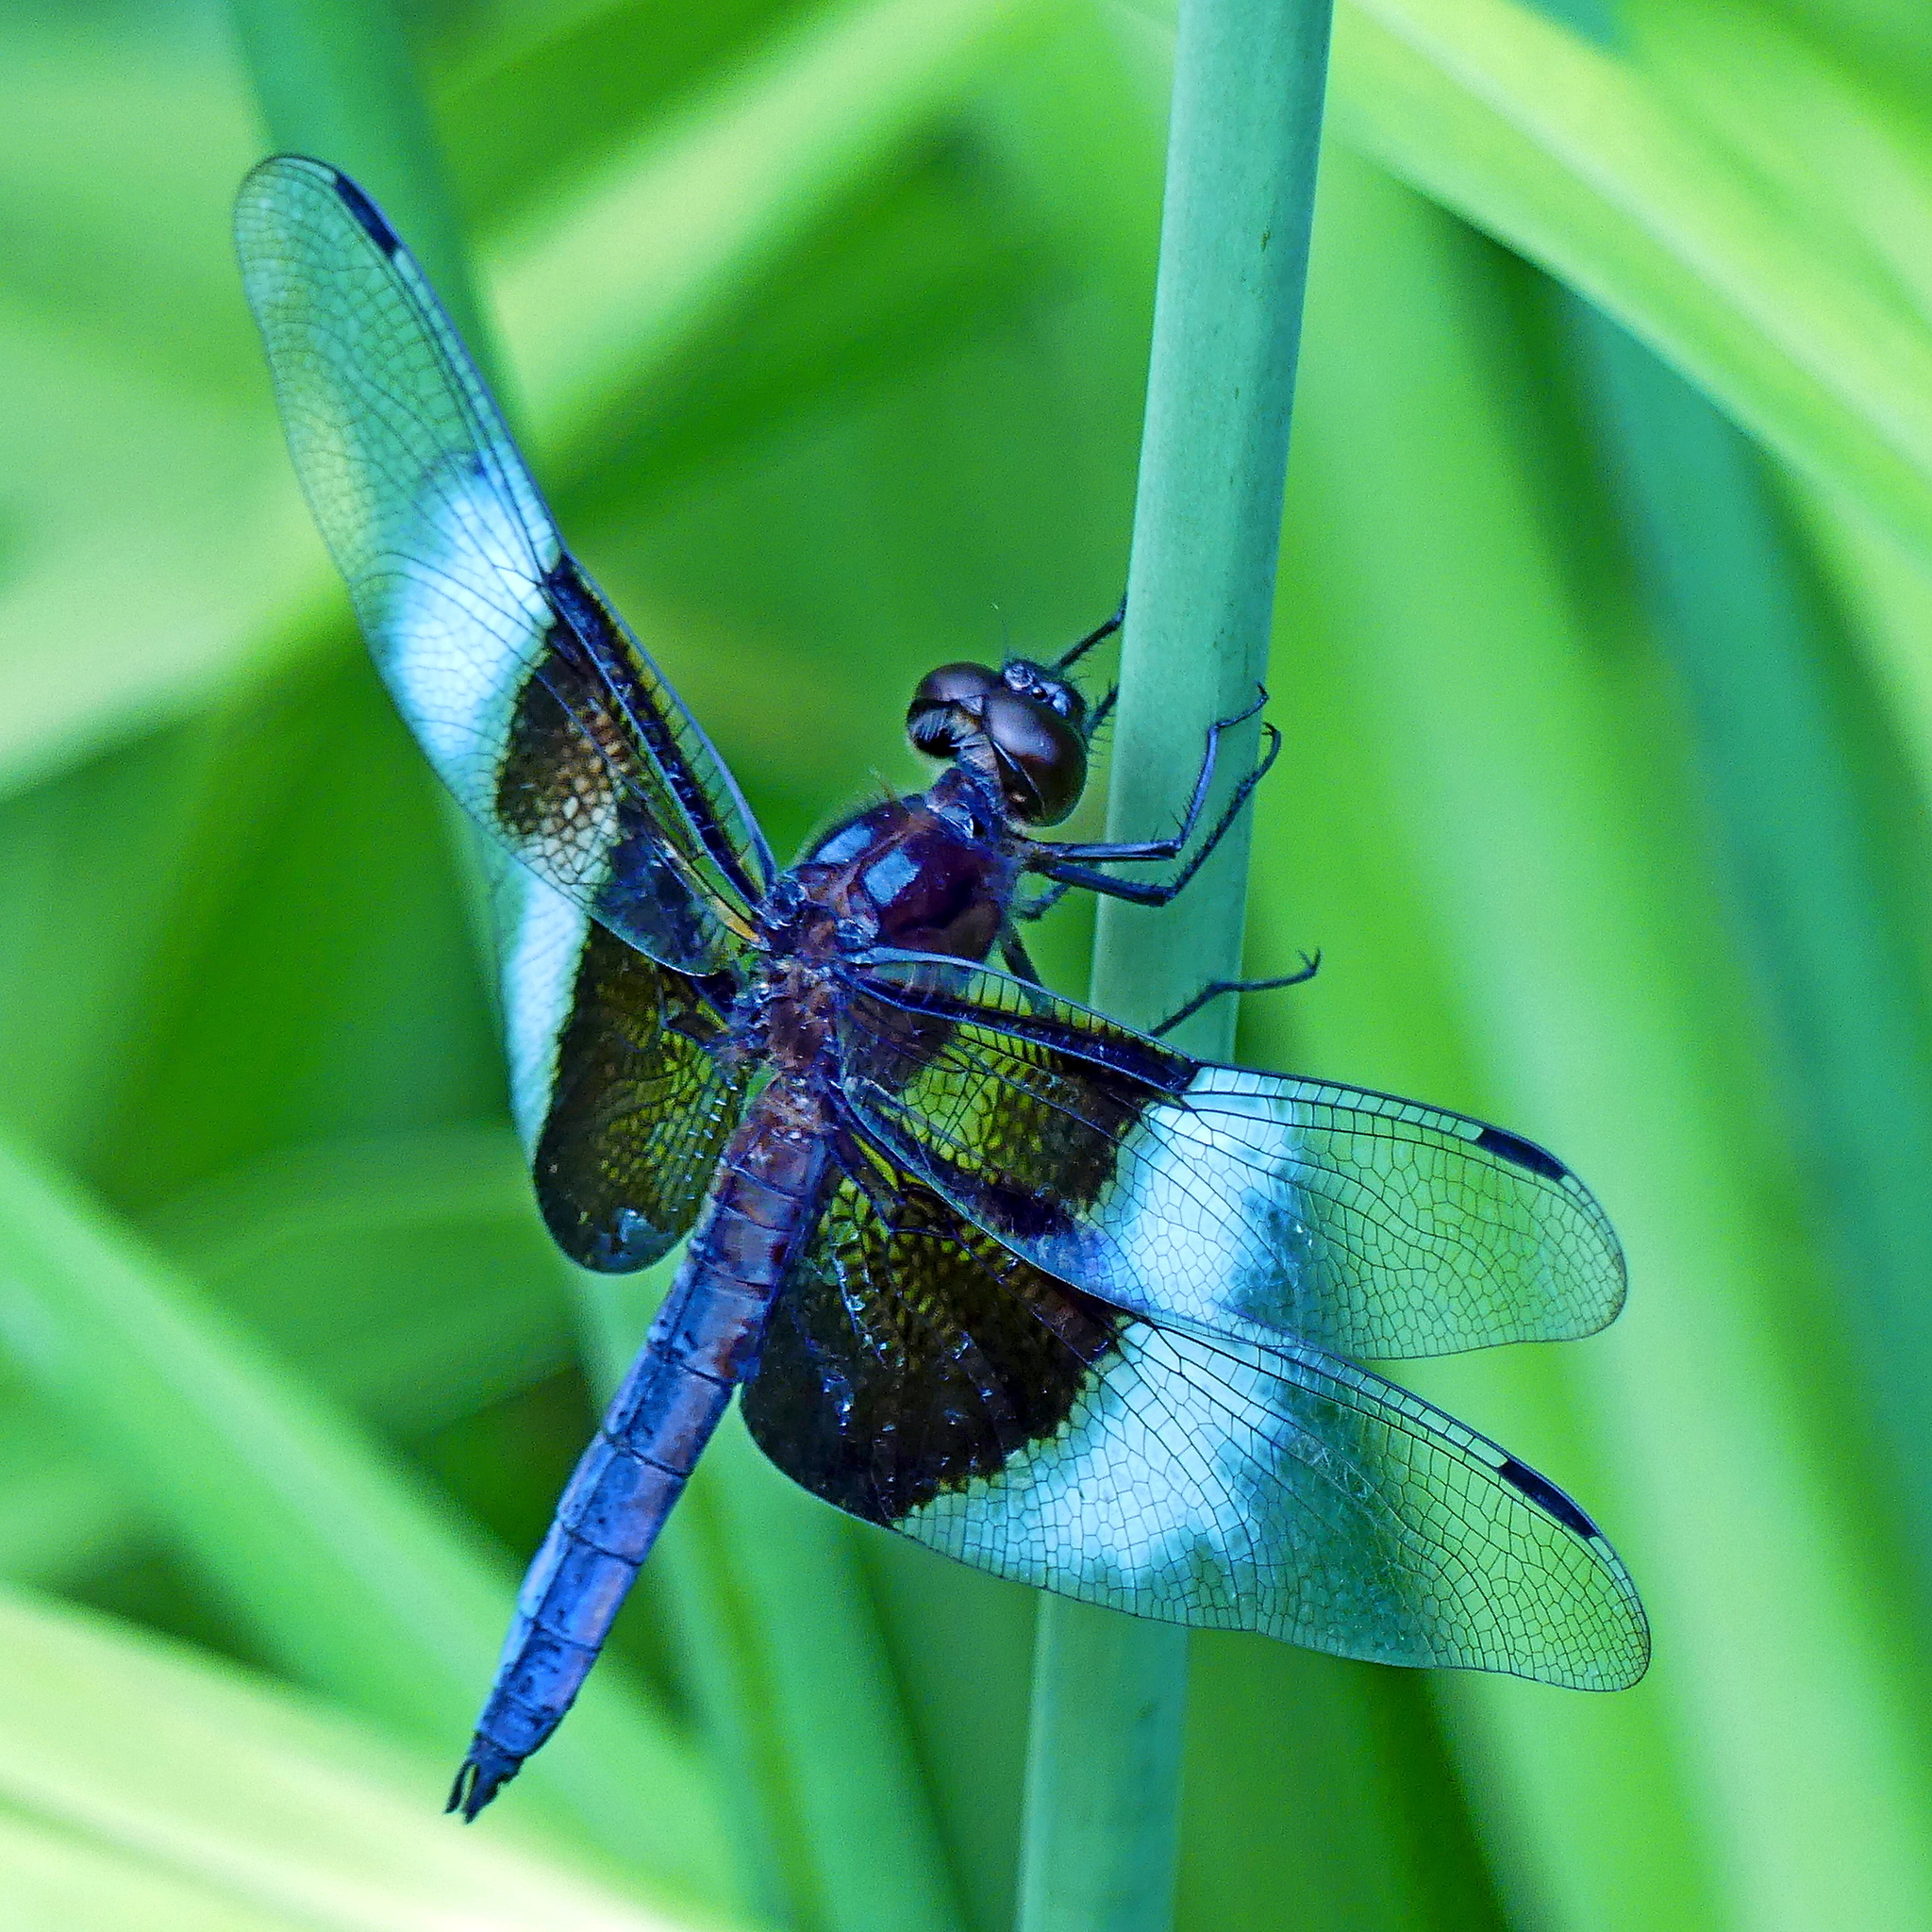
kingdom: Animalia
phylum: Arthropoda
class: Insecta
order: Odonata
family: Libellulidae
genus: Libellula
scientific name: Libellula luctuosa
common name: Widow skimmer
